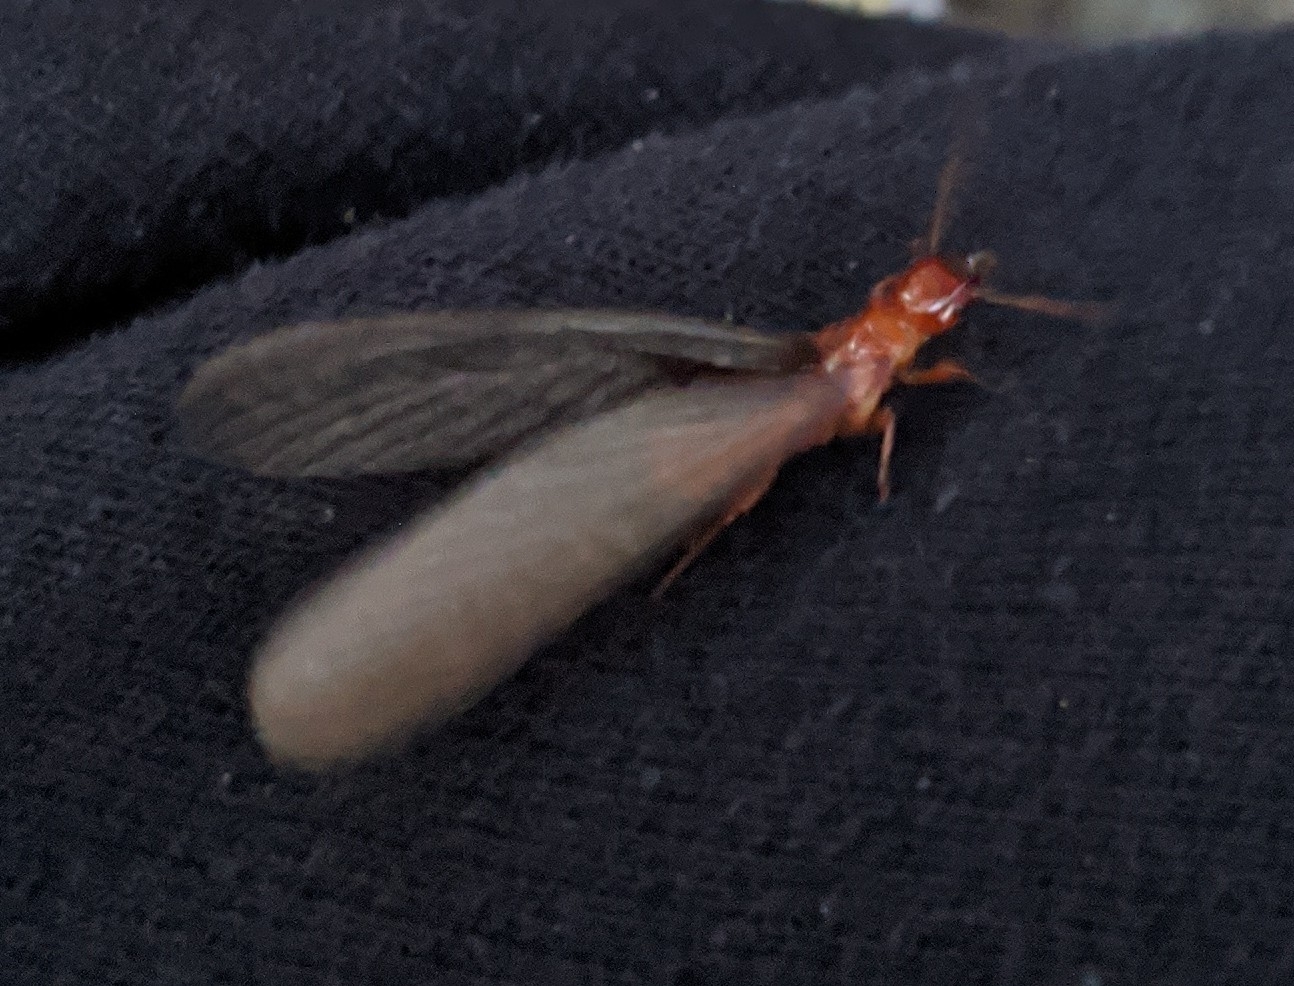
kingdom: Animalia
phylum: Arthropoda
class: Insecta
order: Blattodea
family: Archotermopsidae
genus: Zootermopsis
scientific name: Zootermopsis angusticollis
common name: Rottenwood termite
